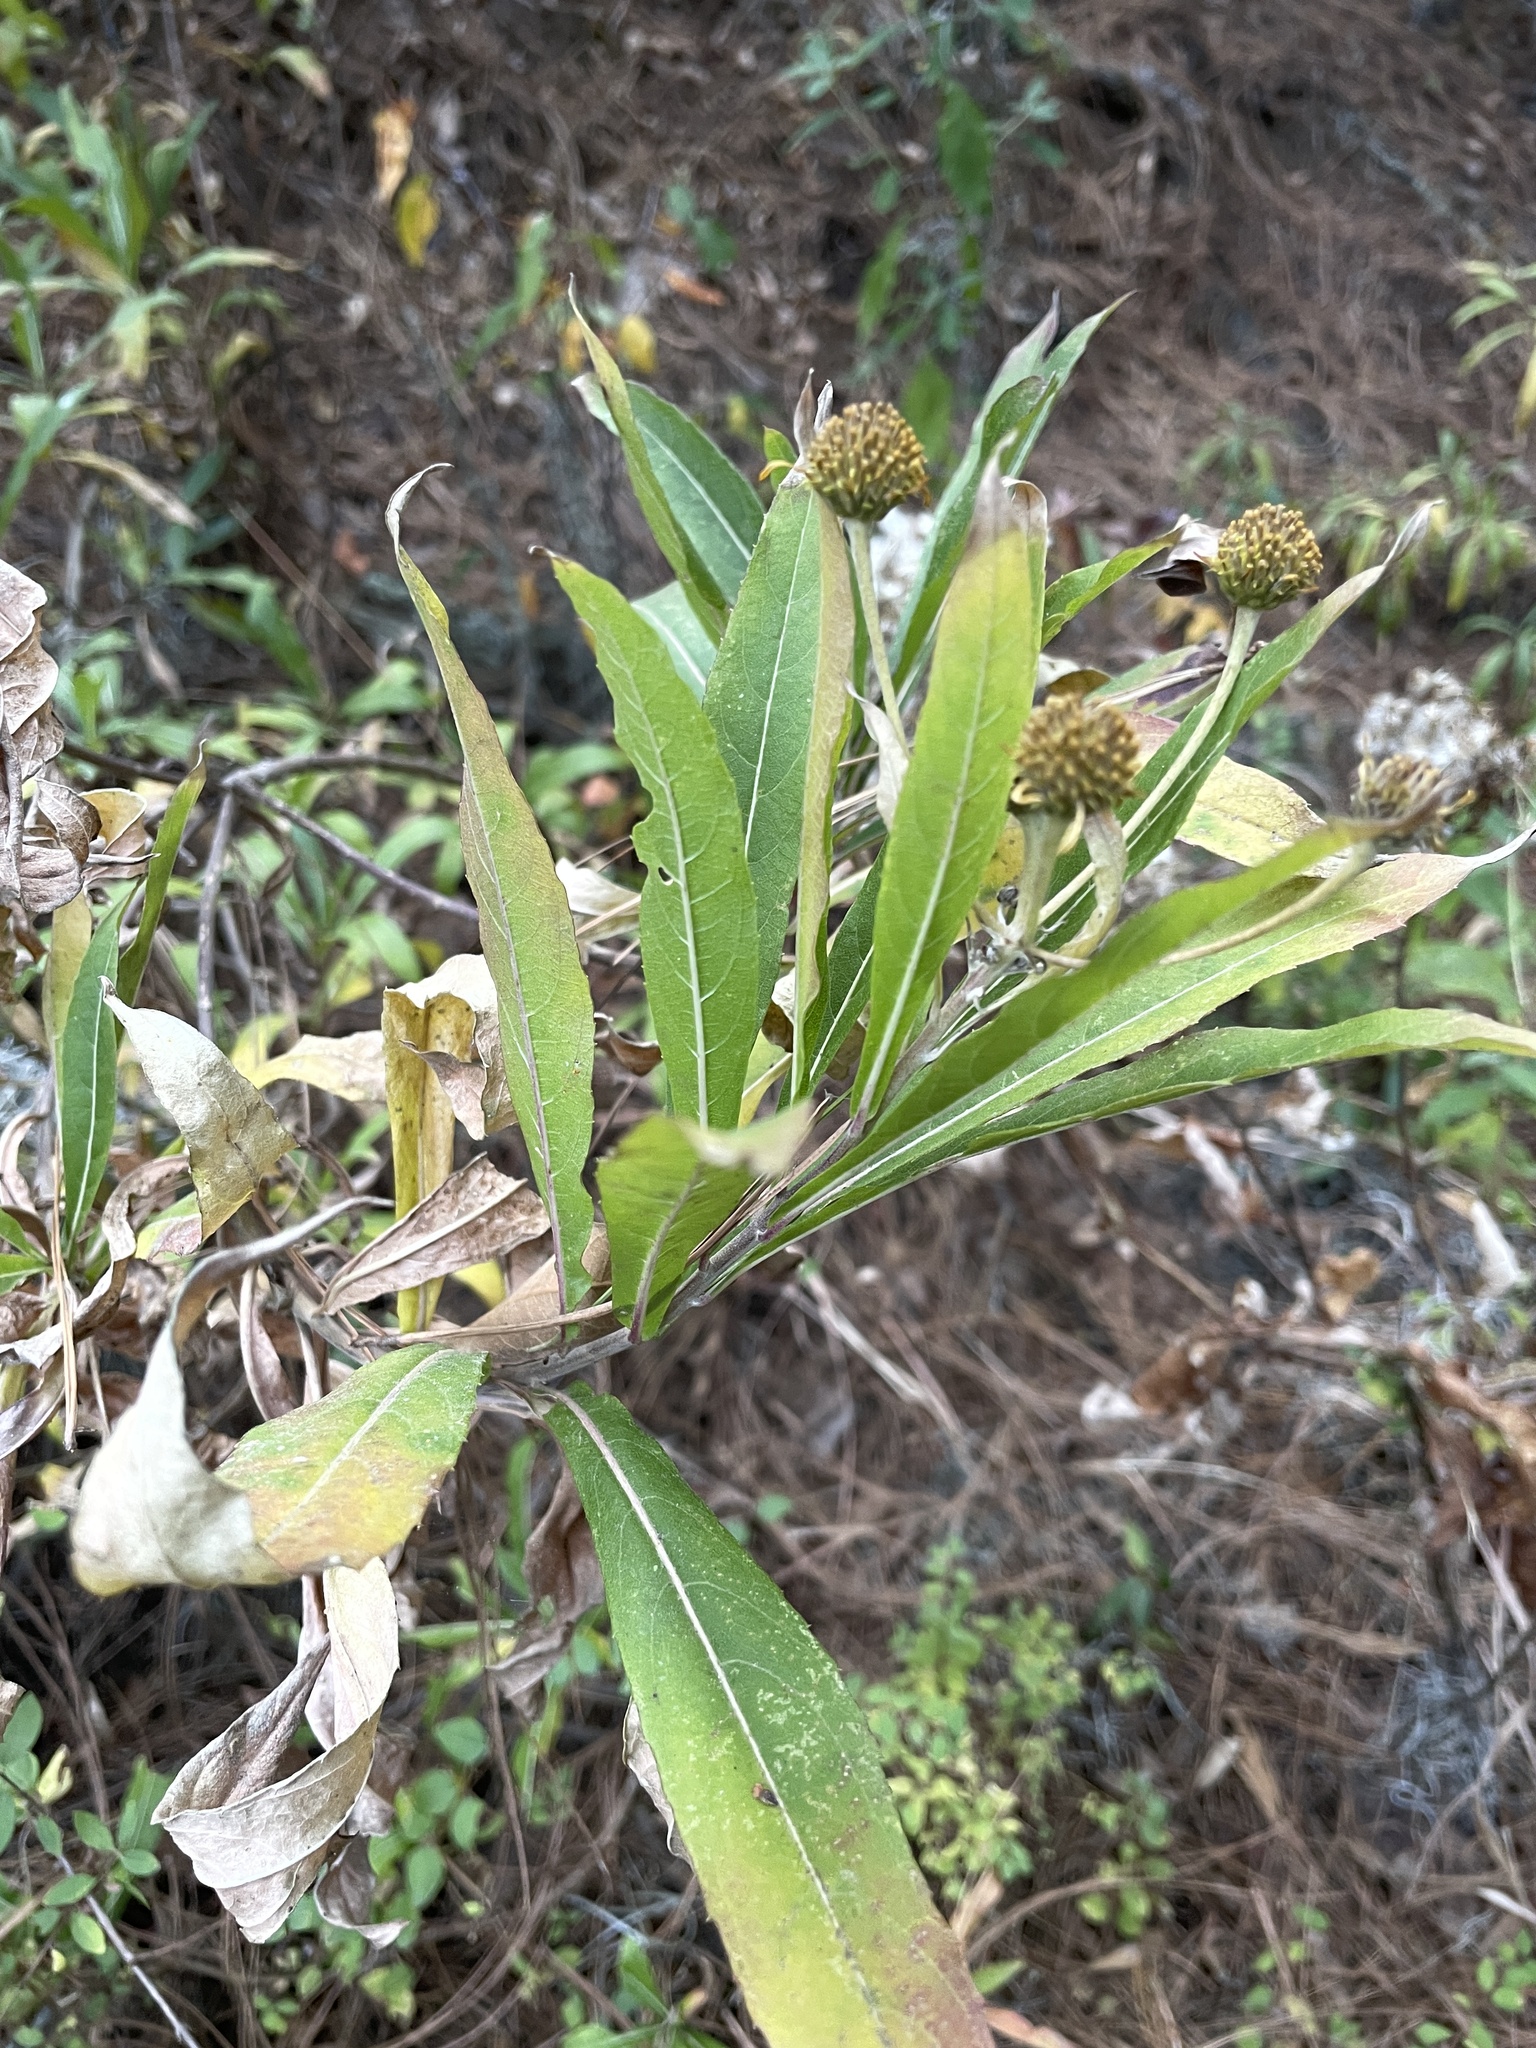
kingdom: Plantae
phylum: Tracheophyta
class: Magnoliopsida
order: Asterales
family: Asteraceae
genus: Verbesina
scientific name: Verbesina virgata
